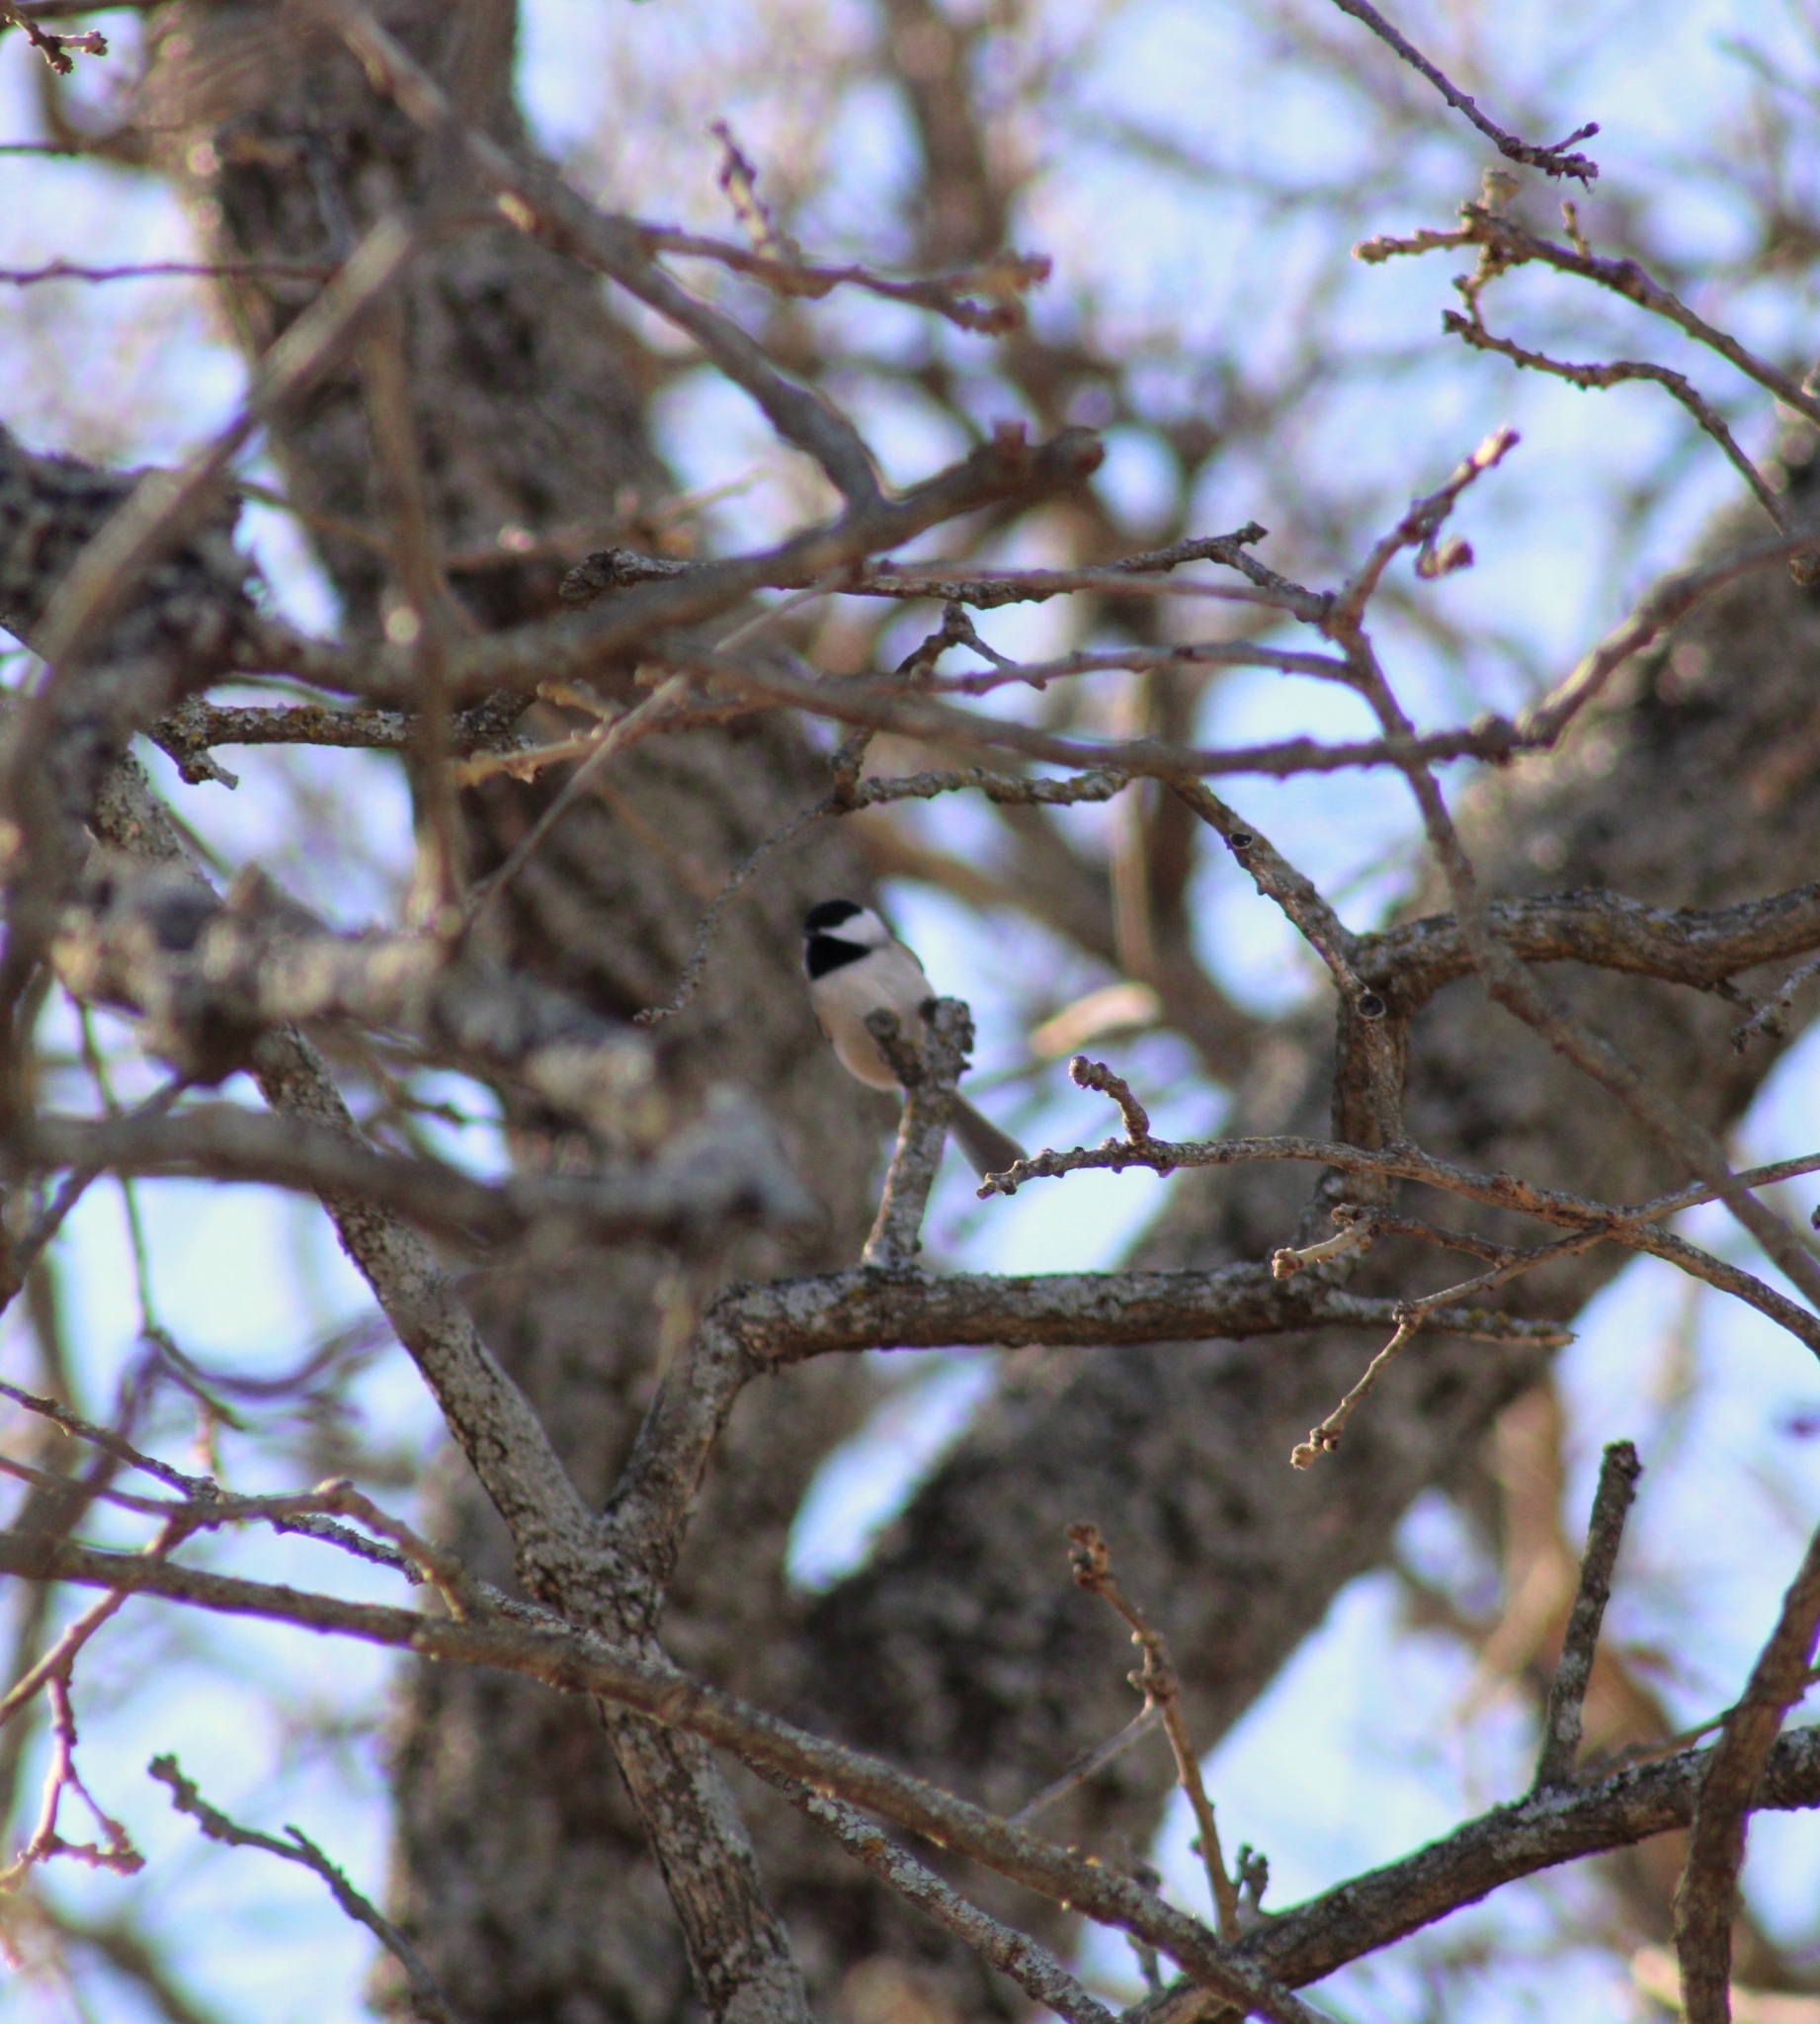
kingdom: Animalia
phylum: Chordata
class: Aves
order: Passeriformes
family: Paridae
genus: Poecile
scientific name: Poecile carolinensis
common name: Carolina chickadee
